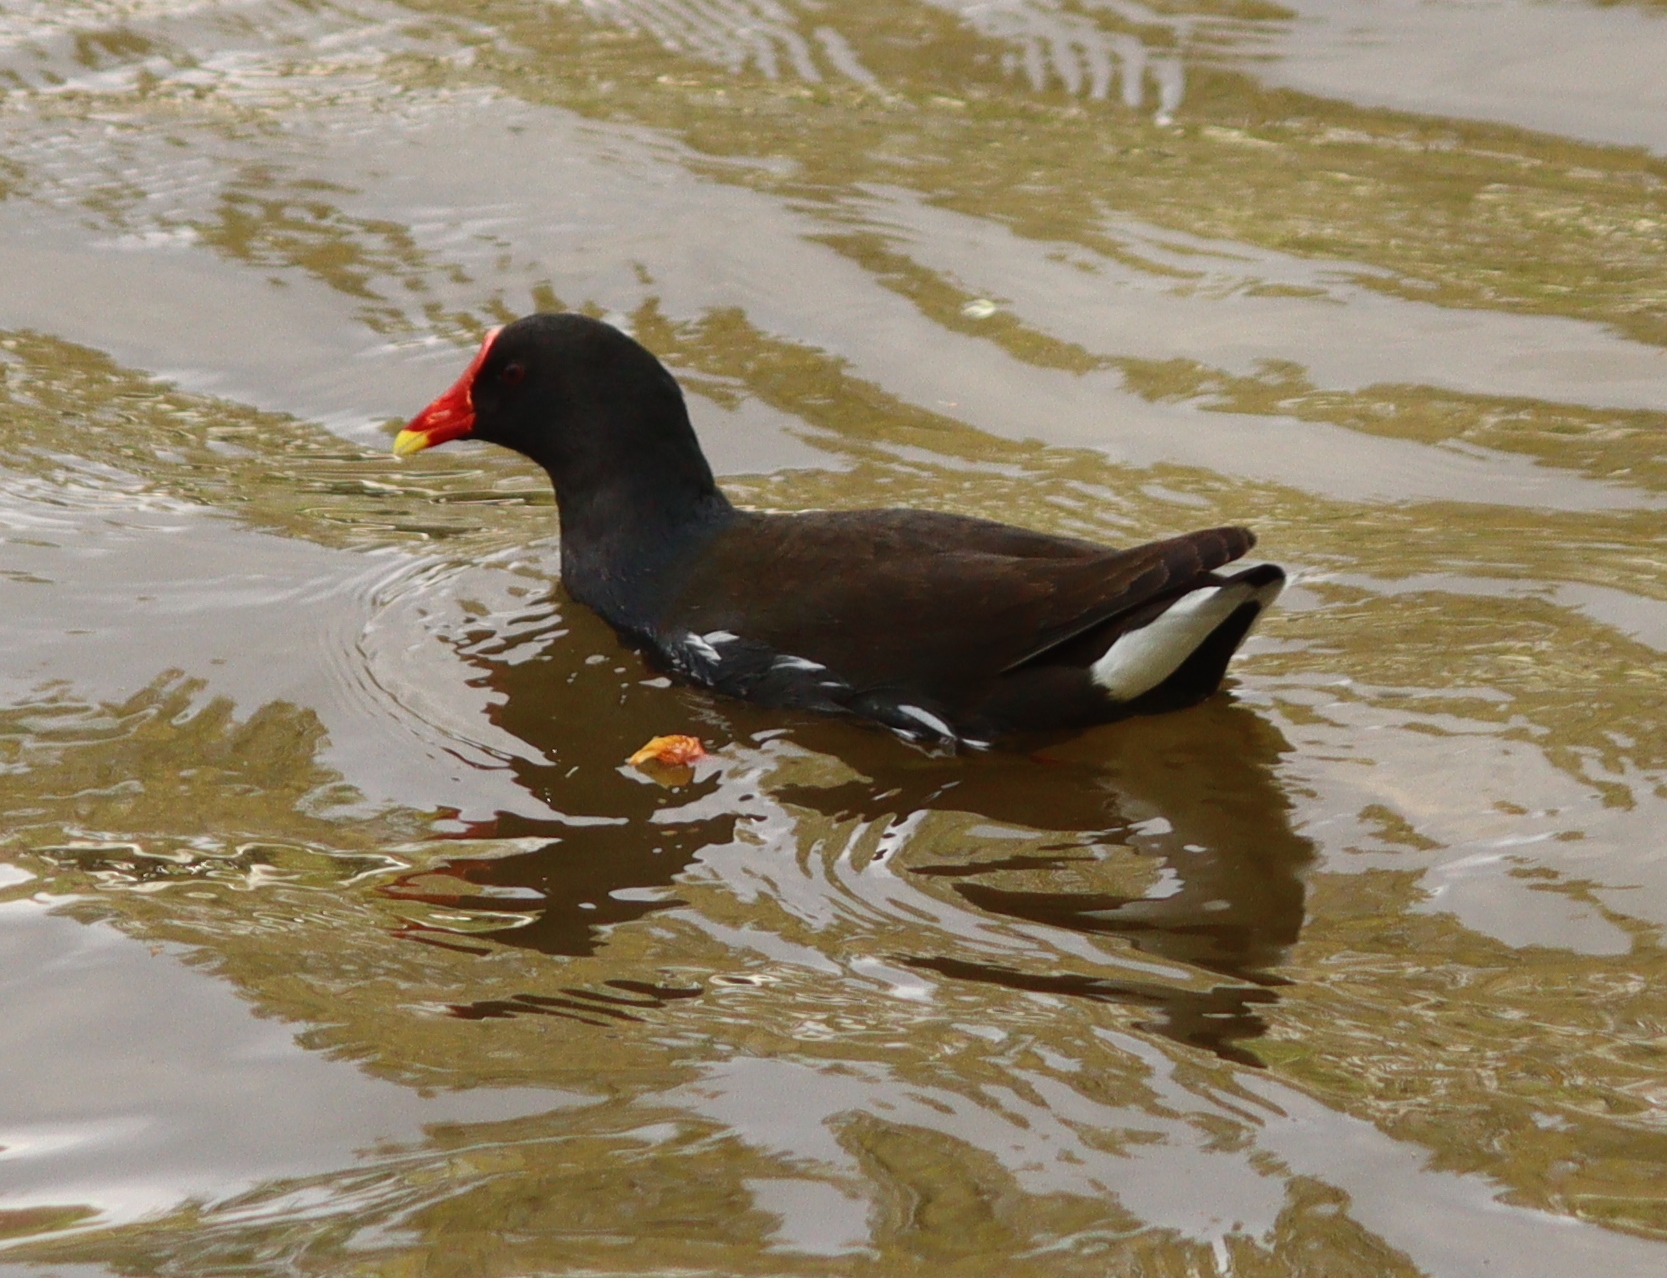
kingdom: Animalia
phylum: Chordata
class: Aves
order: Gruiformes
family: Rallidae
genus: Gallinula
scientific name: Gallinula chloropus
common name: Common moorhen
